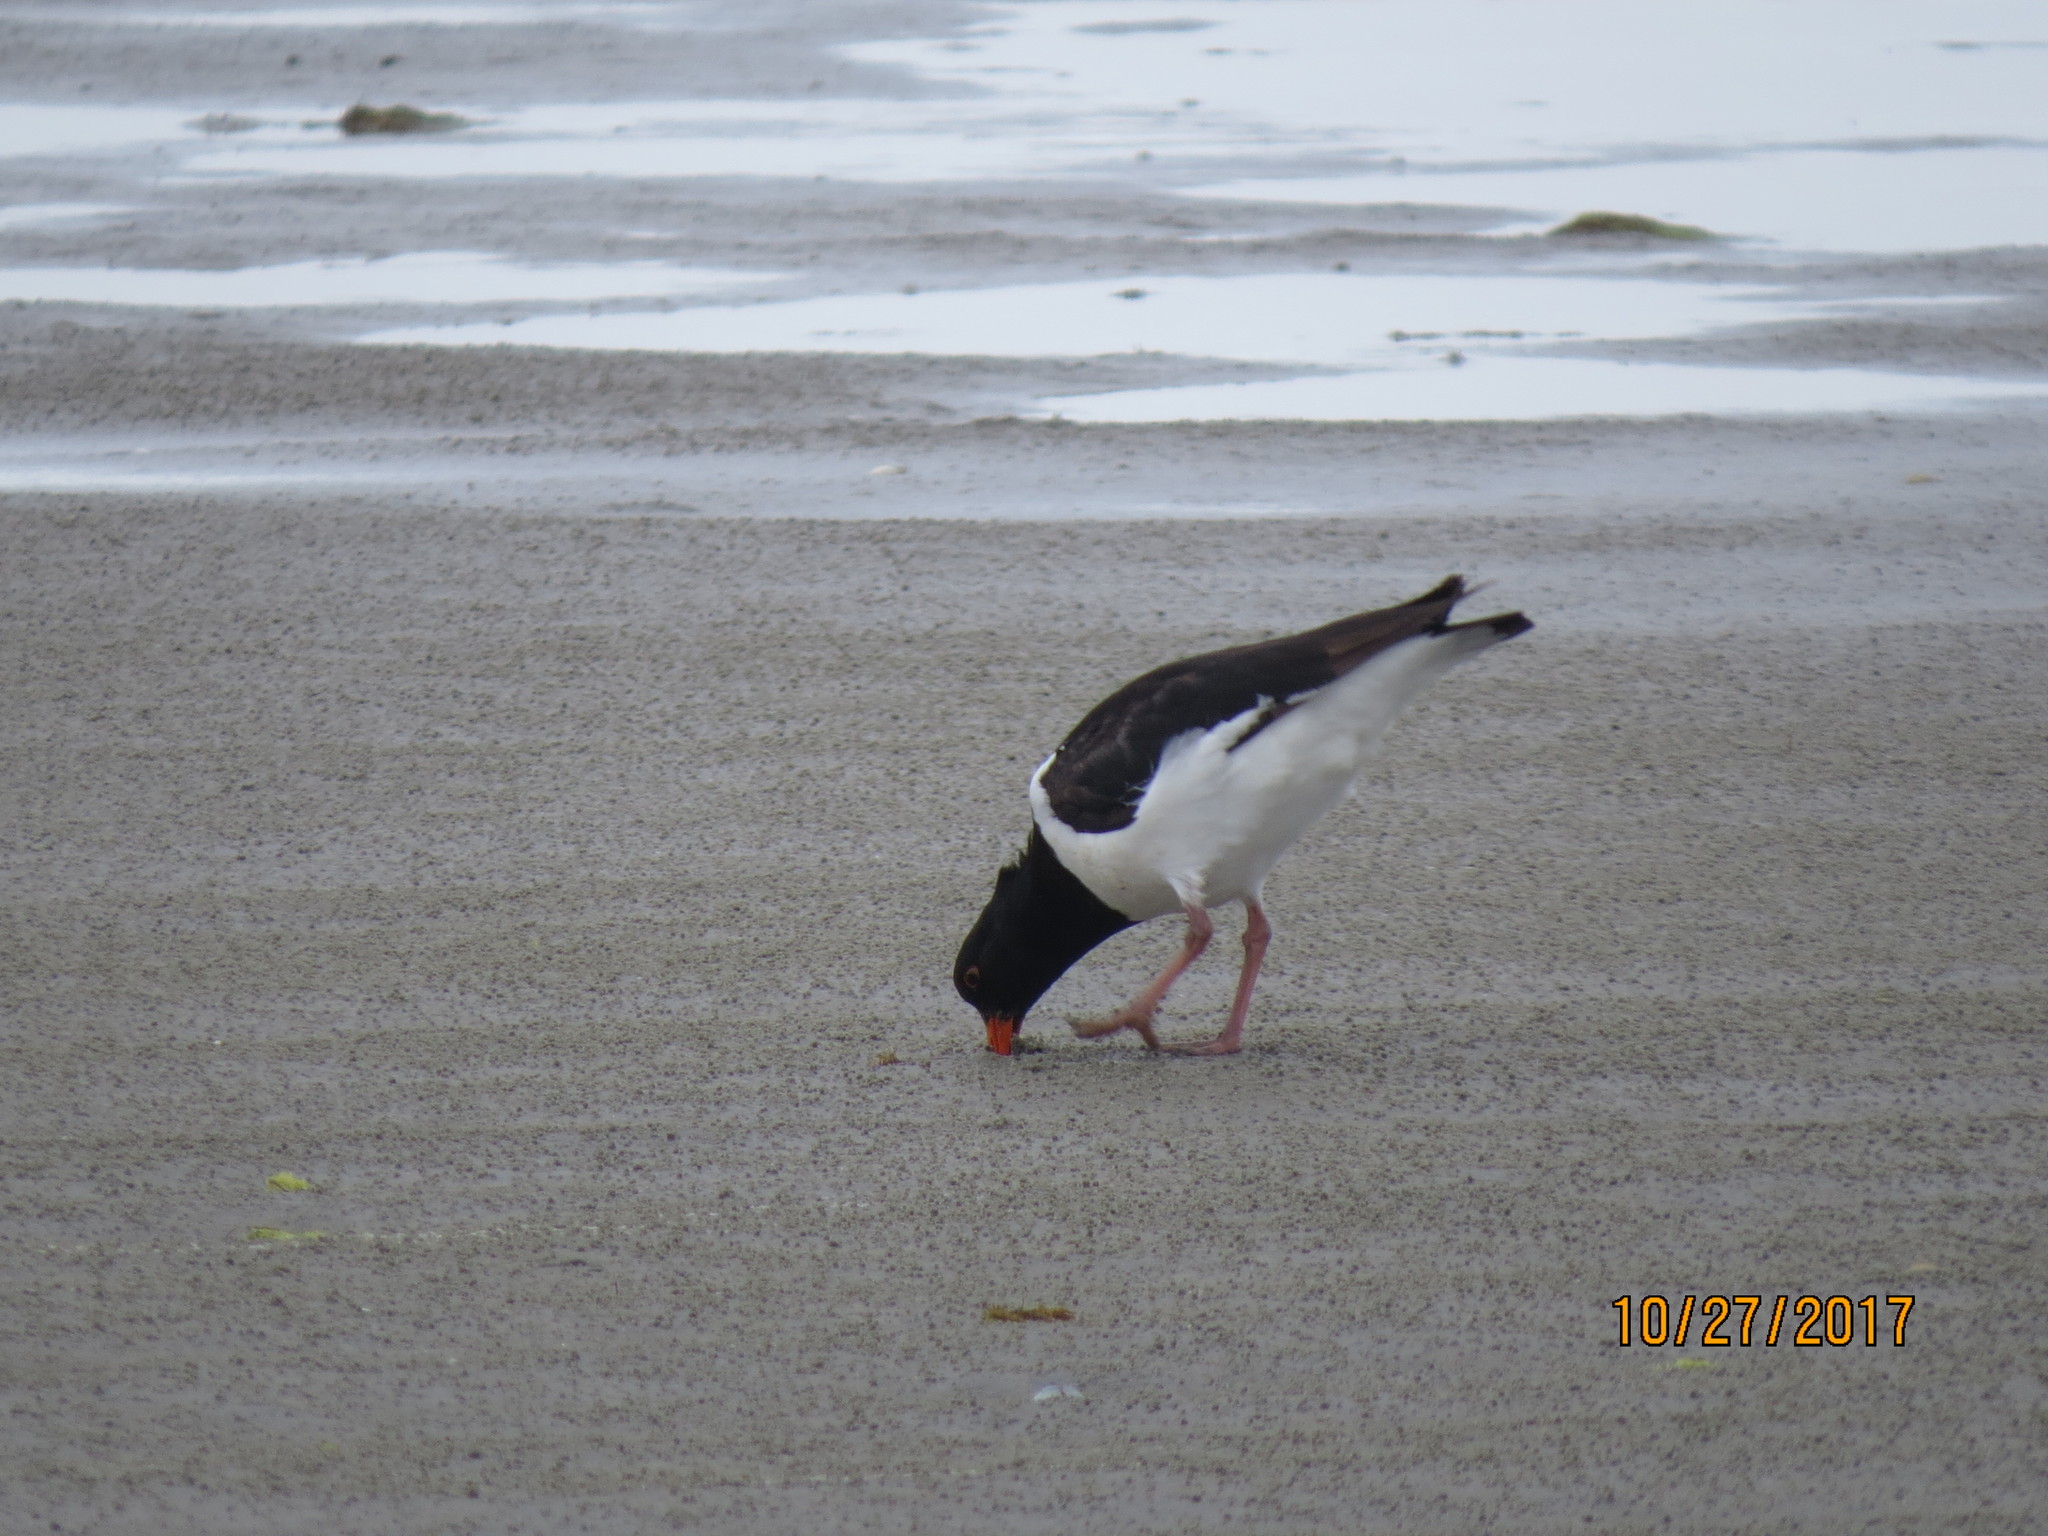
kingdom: Animalia
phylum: Chordata
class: Aves
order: Charadriiformes
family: Haematopodidae
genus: Haematopus
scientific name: Haematopus finschi
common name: South island oystercatcher
